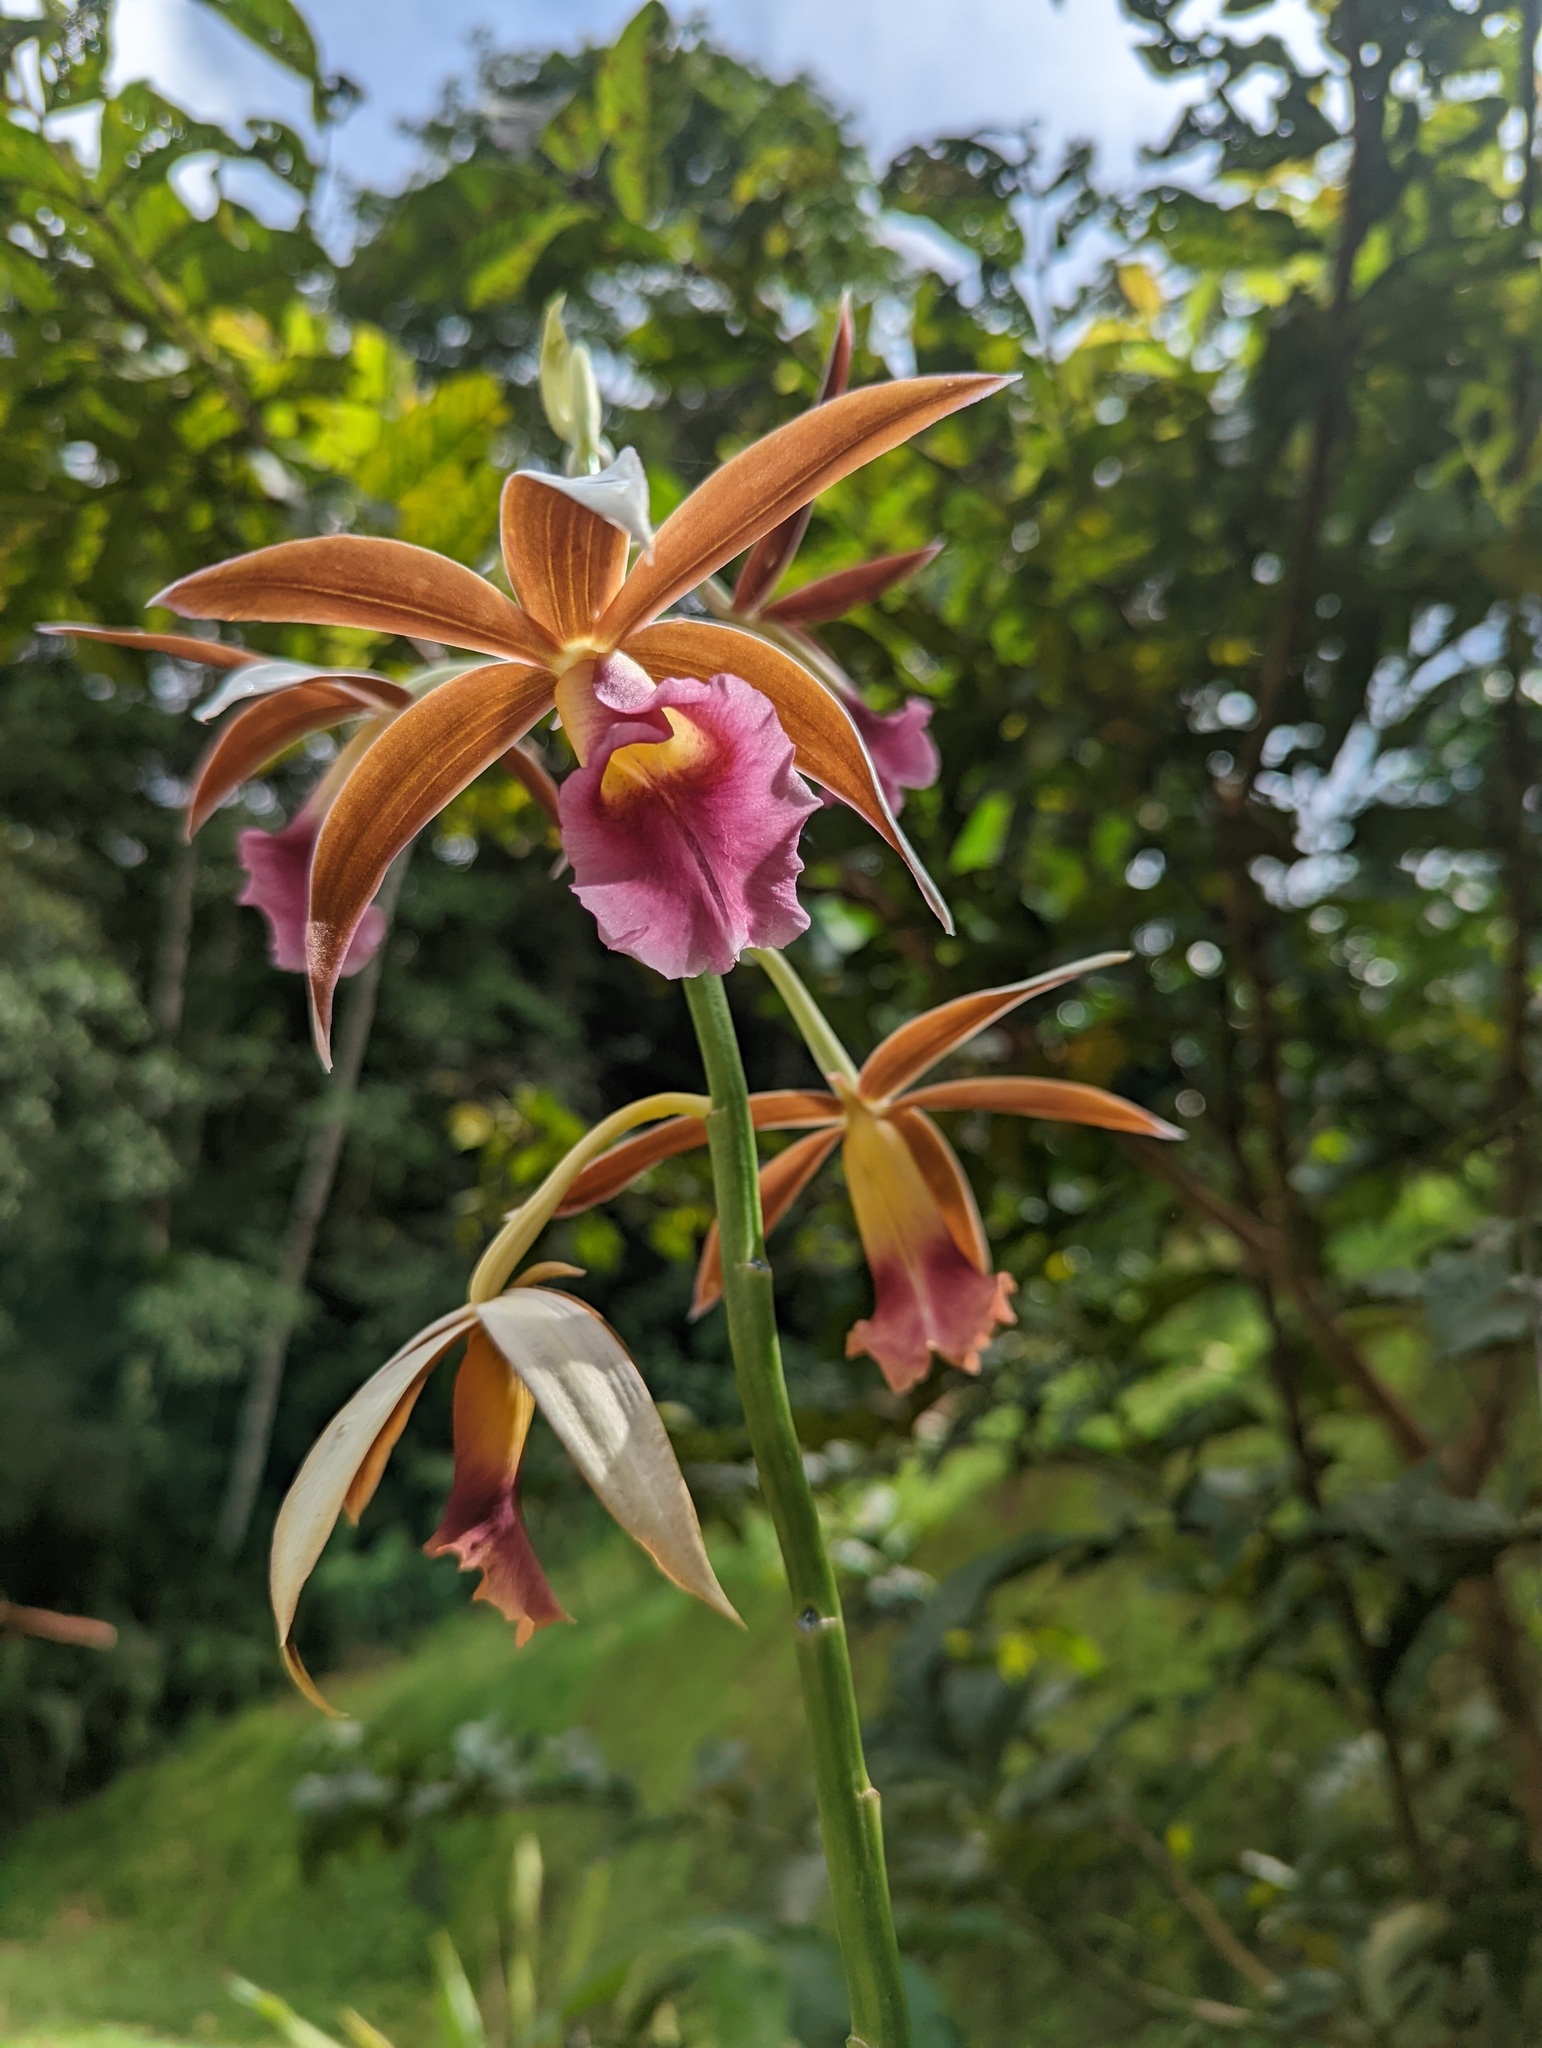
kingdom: Plantae
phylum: Tracheophyta
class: Liliopsida
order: Asparagales
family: Orchidaceae
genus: Calanthe
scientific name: Calanthe tankervilleae
